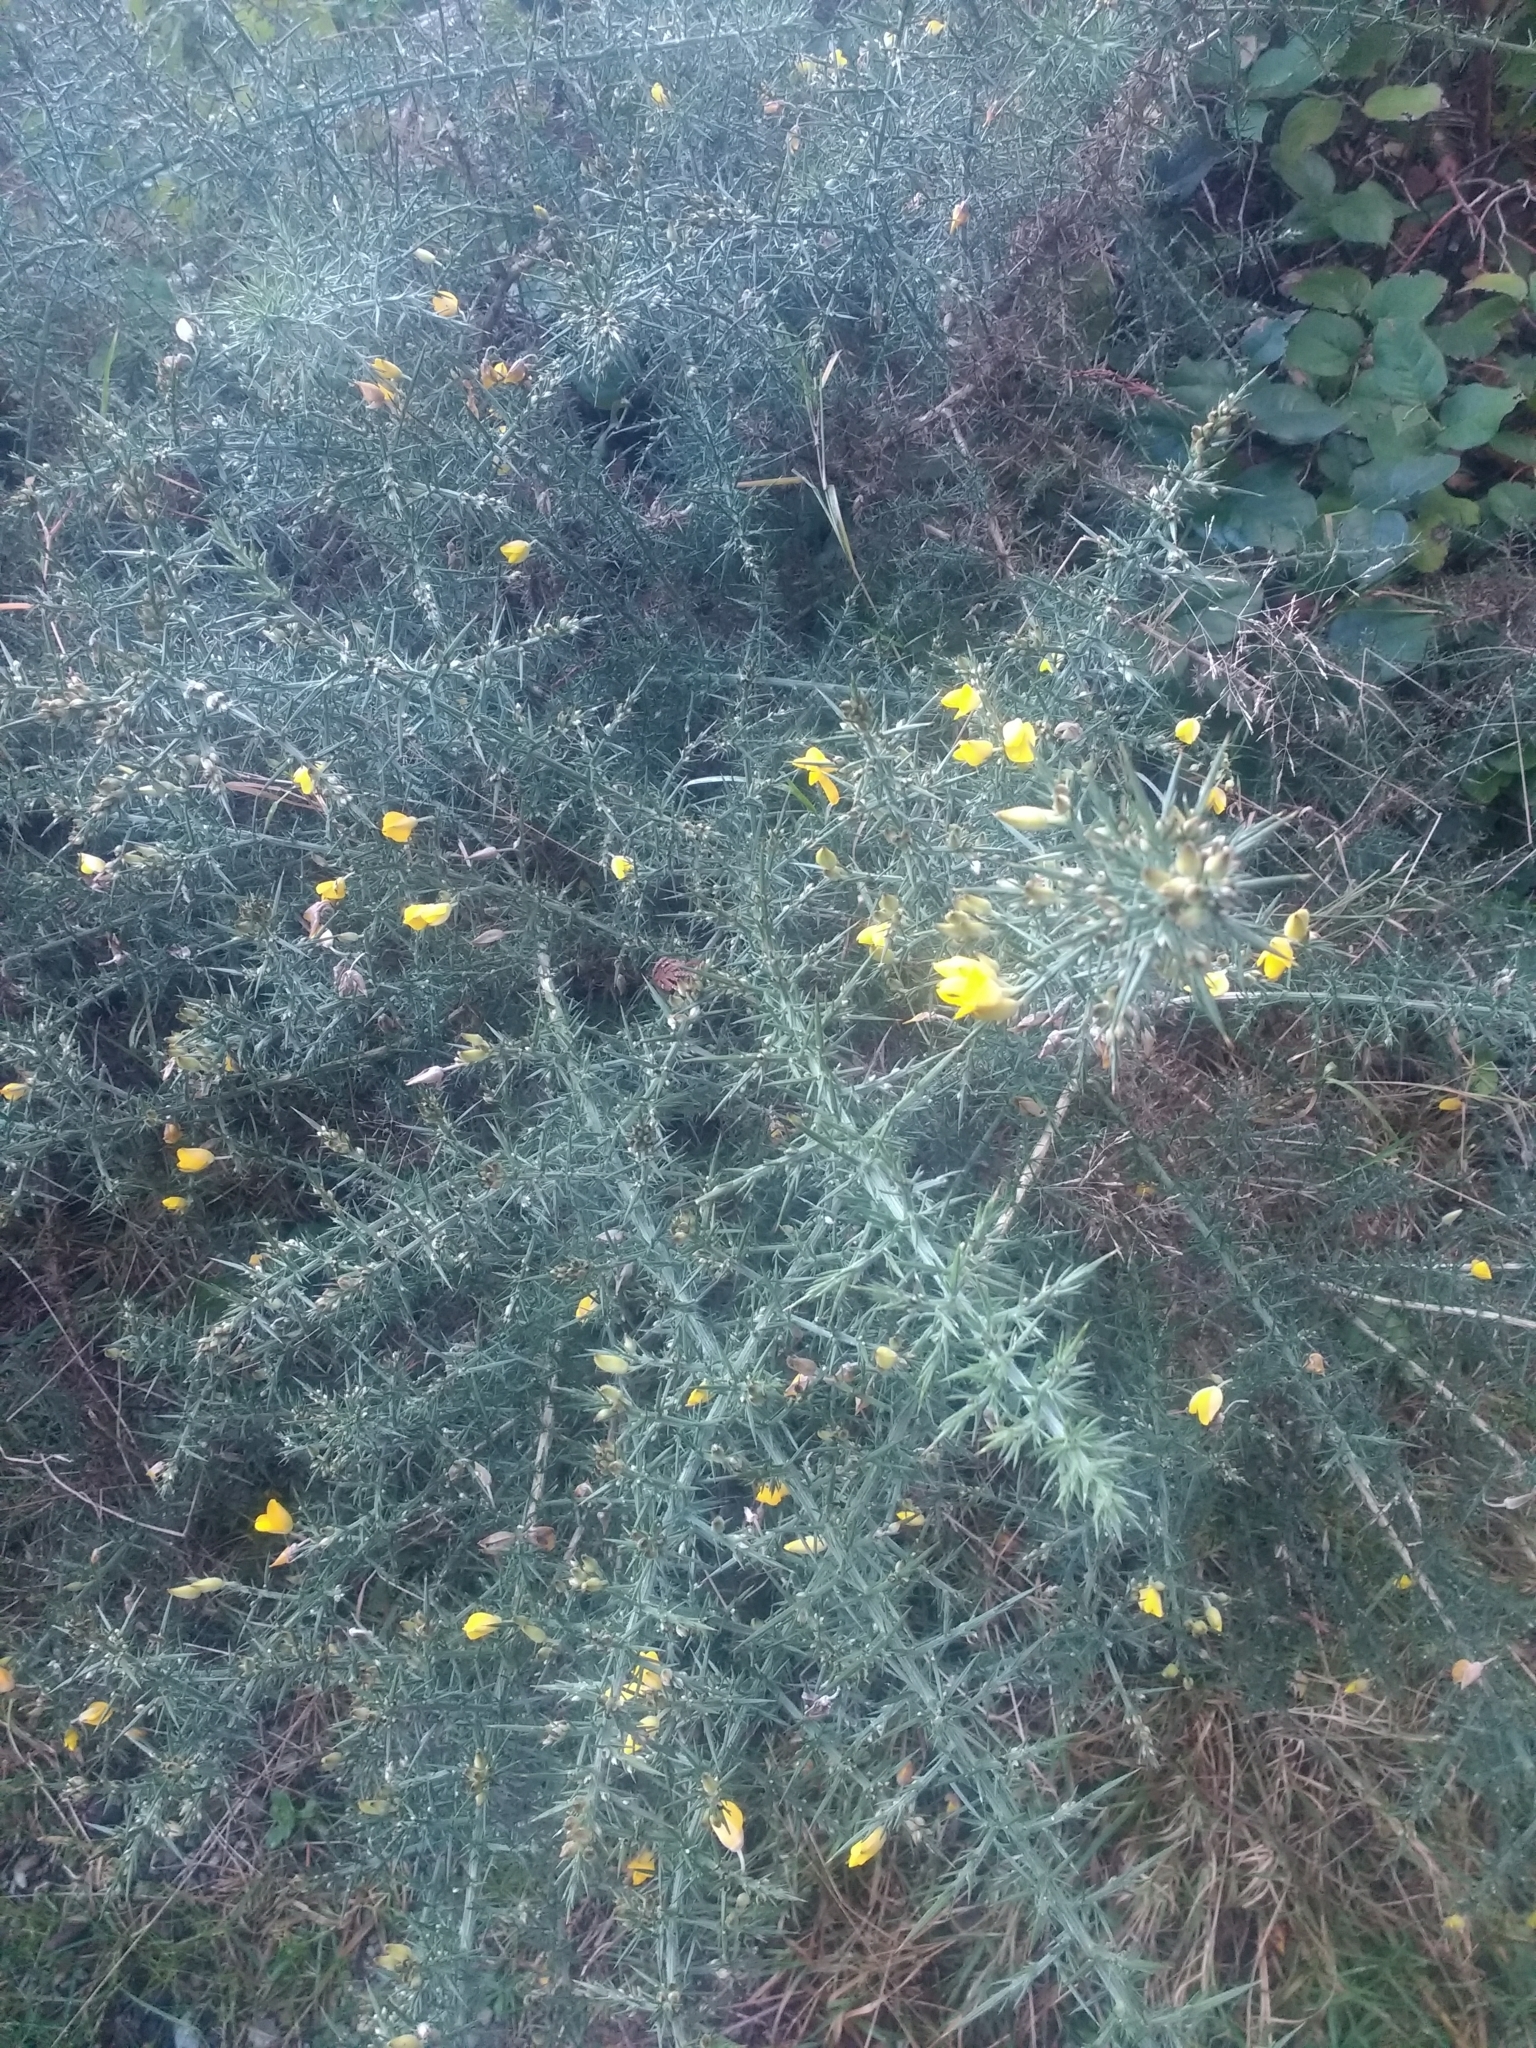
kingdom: Plantae
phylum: Tracheophyta
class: Magnoliopsida
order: Fabales
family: Fabaceae
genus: Ulex
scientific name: Ulex europaeus
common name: Common gorse
